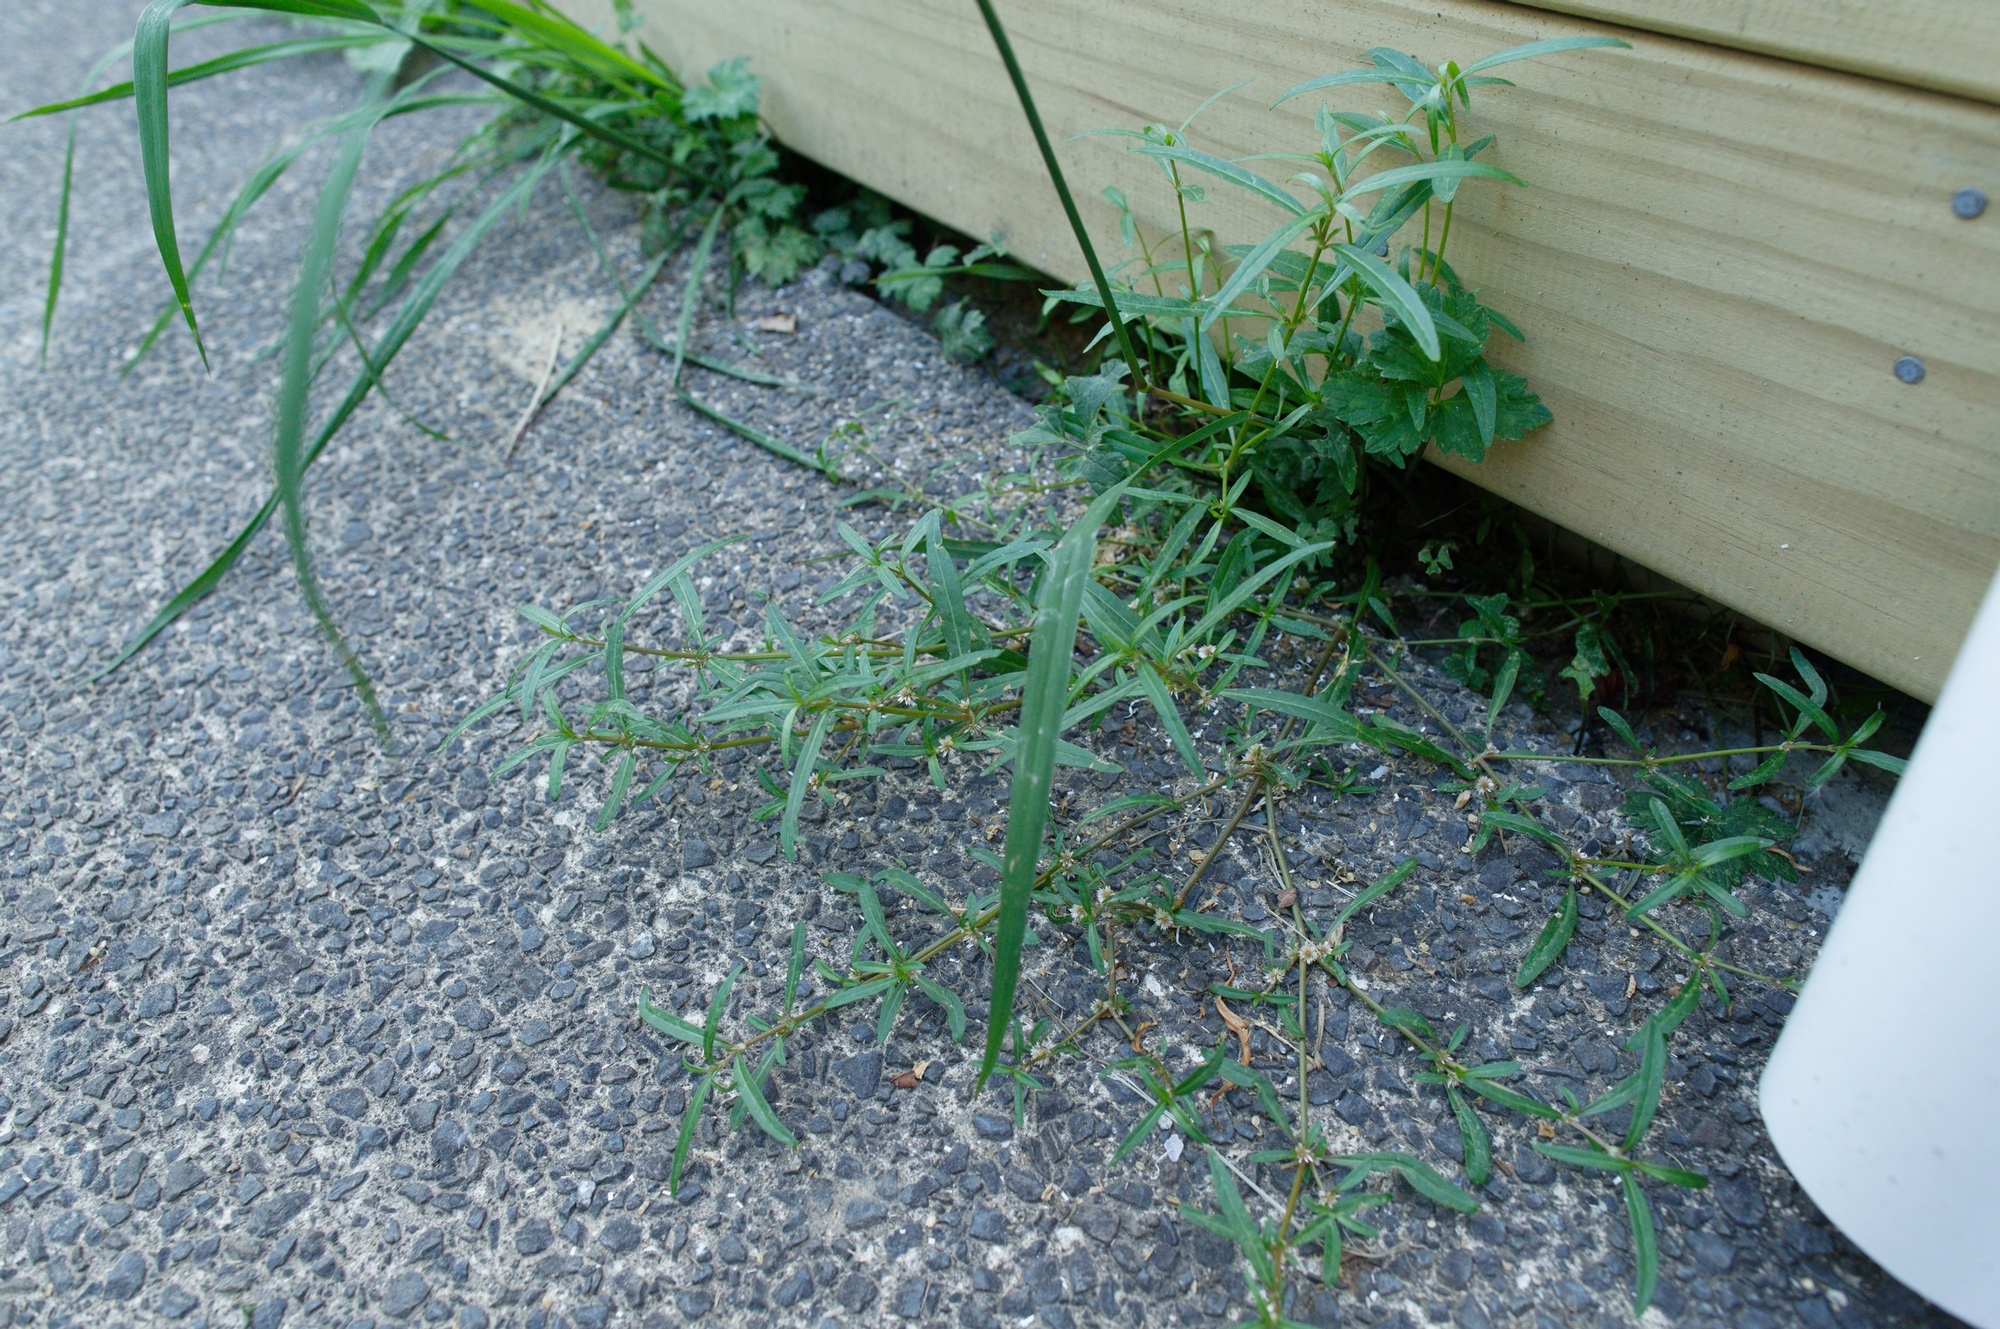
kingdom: Plantae
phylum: Tracheophyta
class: Magnoliopsida
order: Caryophyllales
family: Amaranthaceae
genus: Alternanthera
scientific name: Alternanthera nahui
